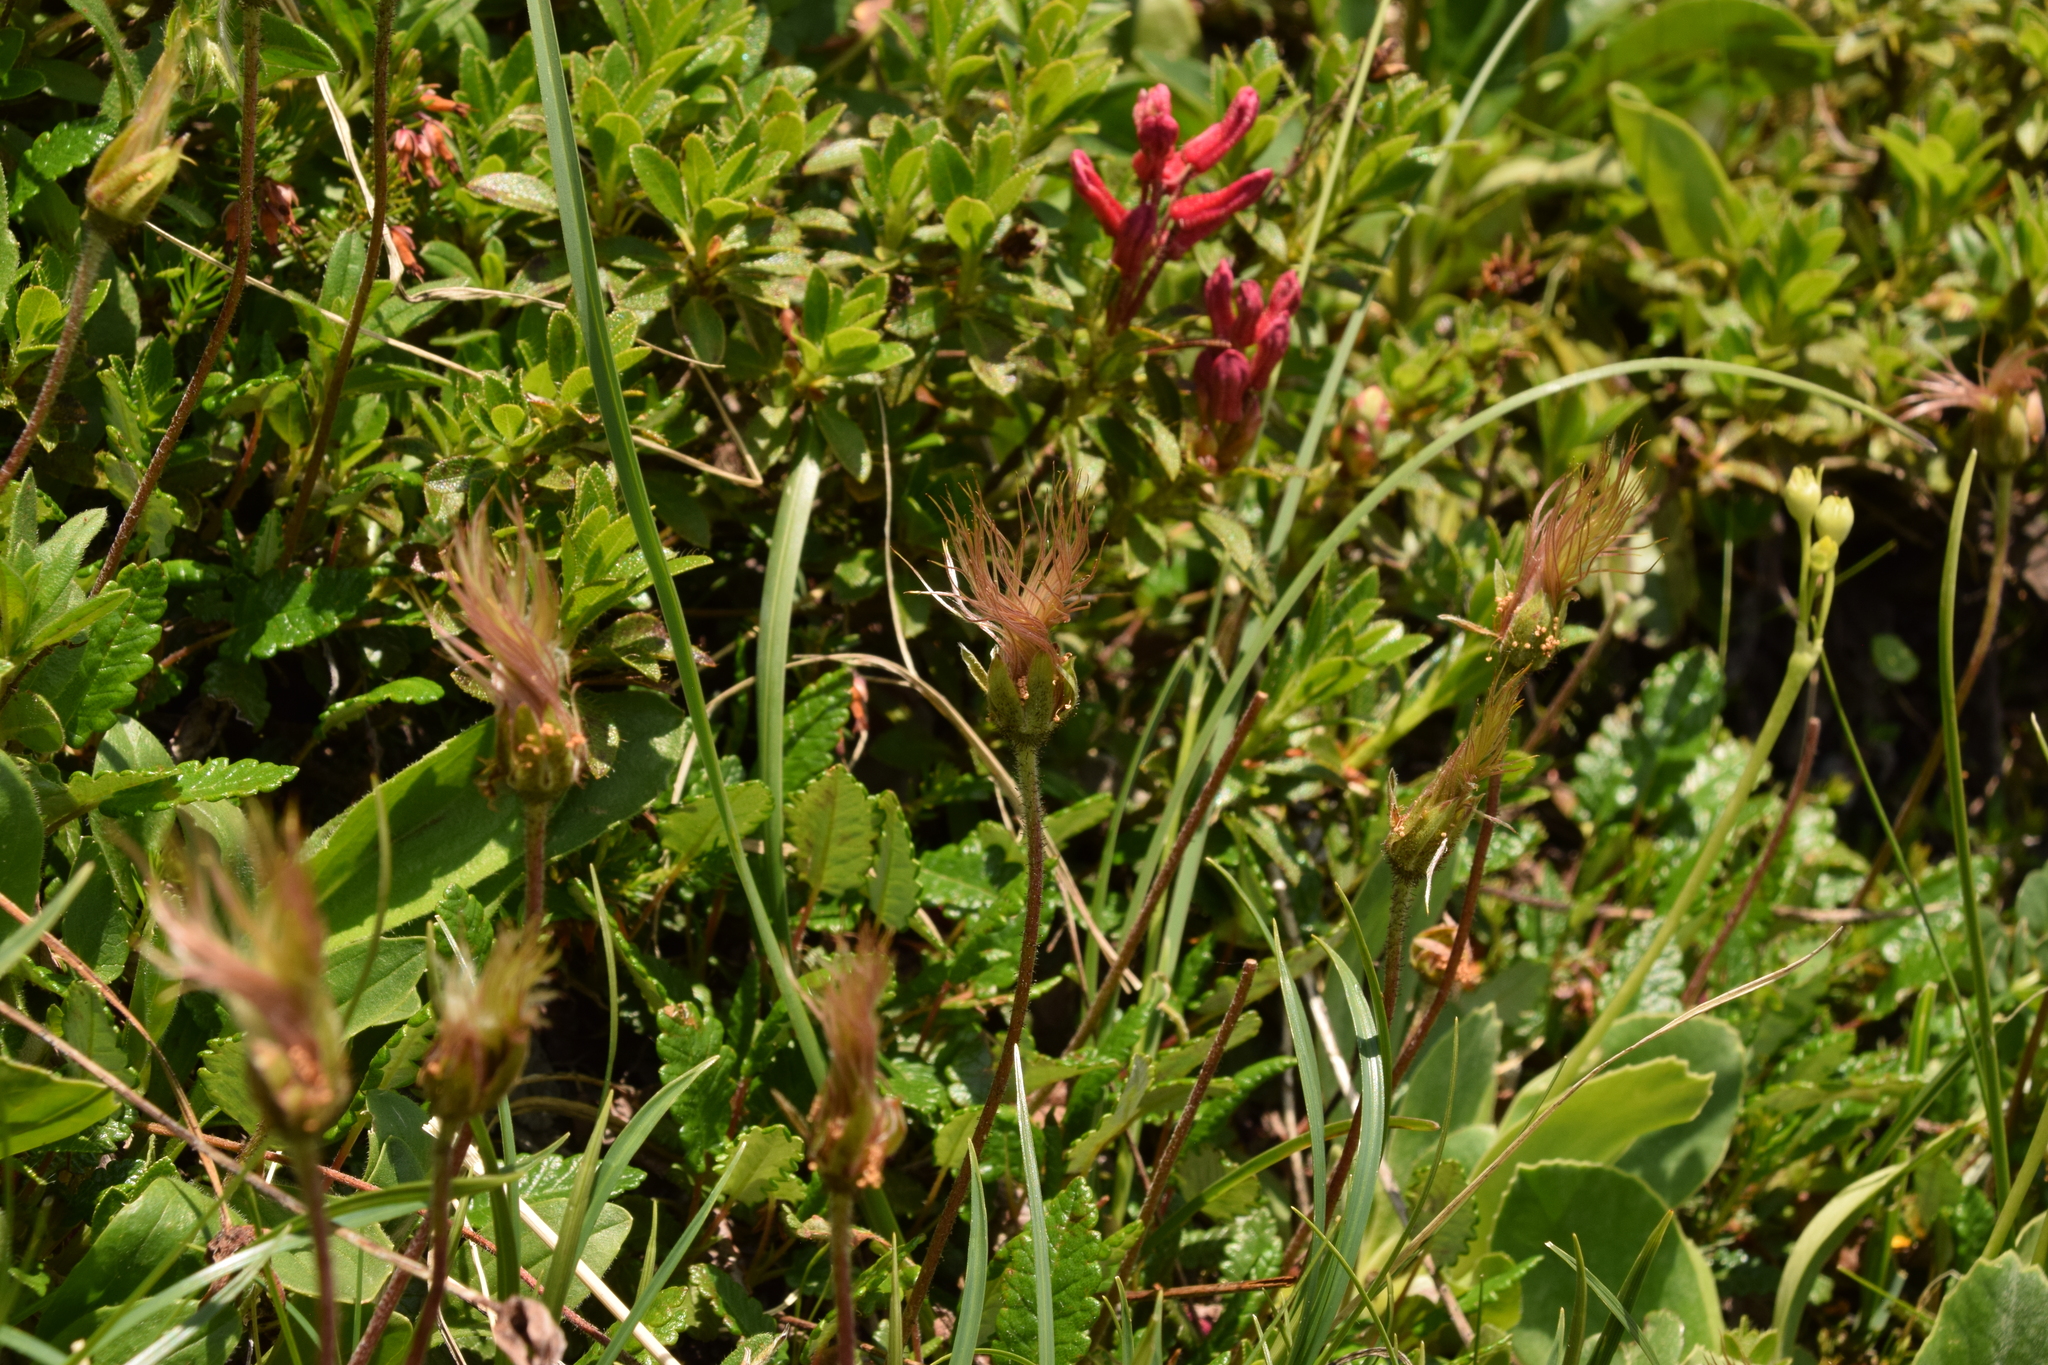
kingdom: Plantae
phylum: Tracheophyta
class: Magnoliopsida
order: Ericales
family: Ericaceae
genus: Rhododendron
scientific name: Rhododendron hirsutum
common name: Hairy alpenrose
